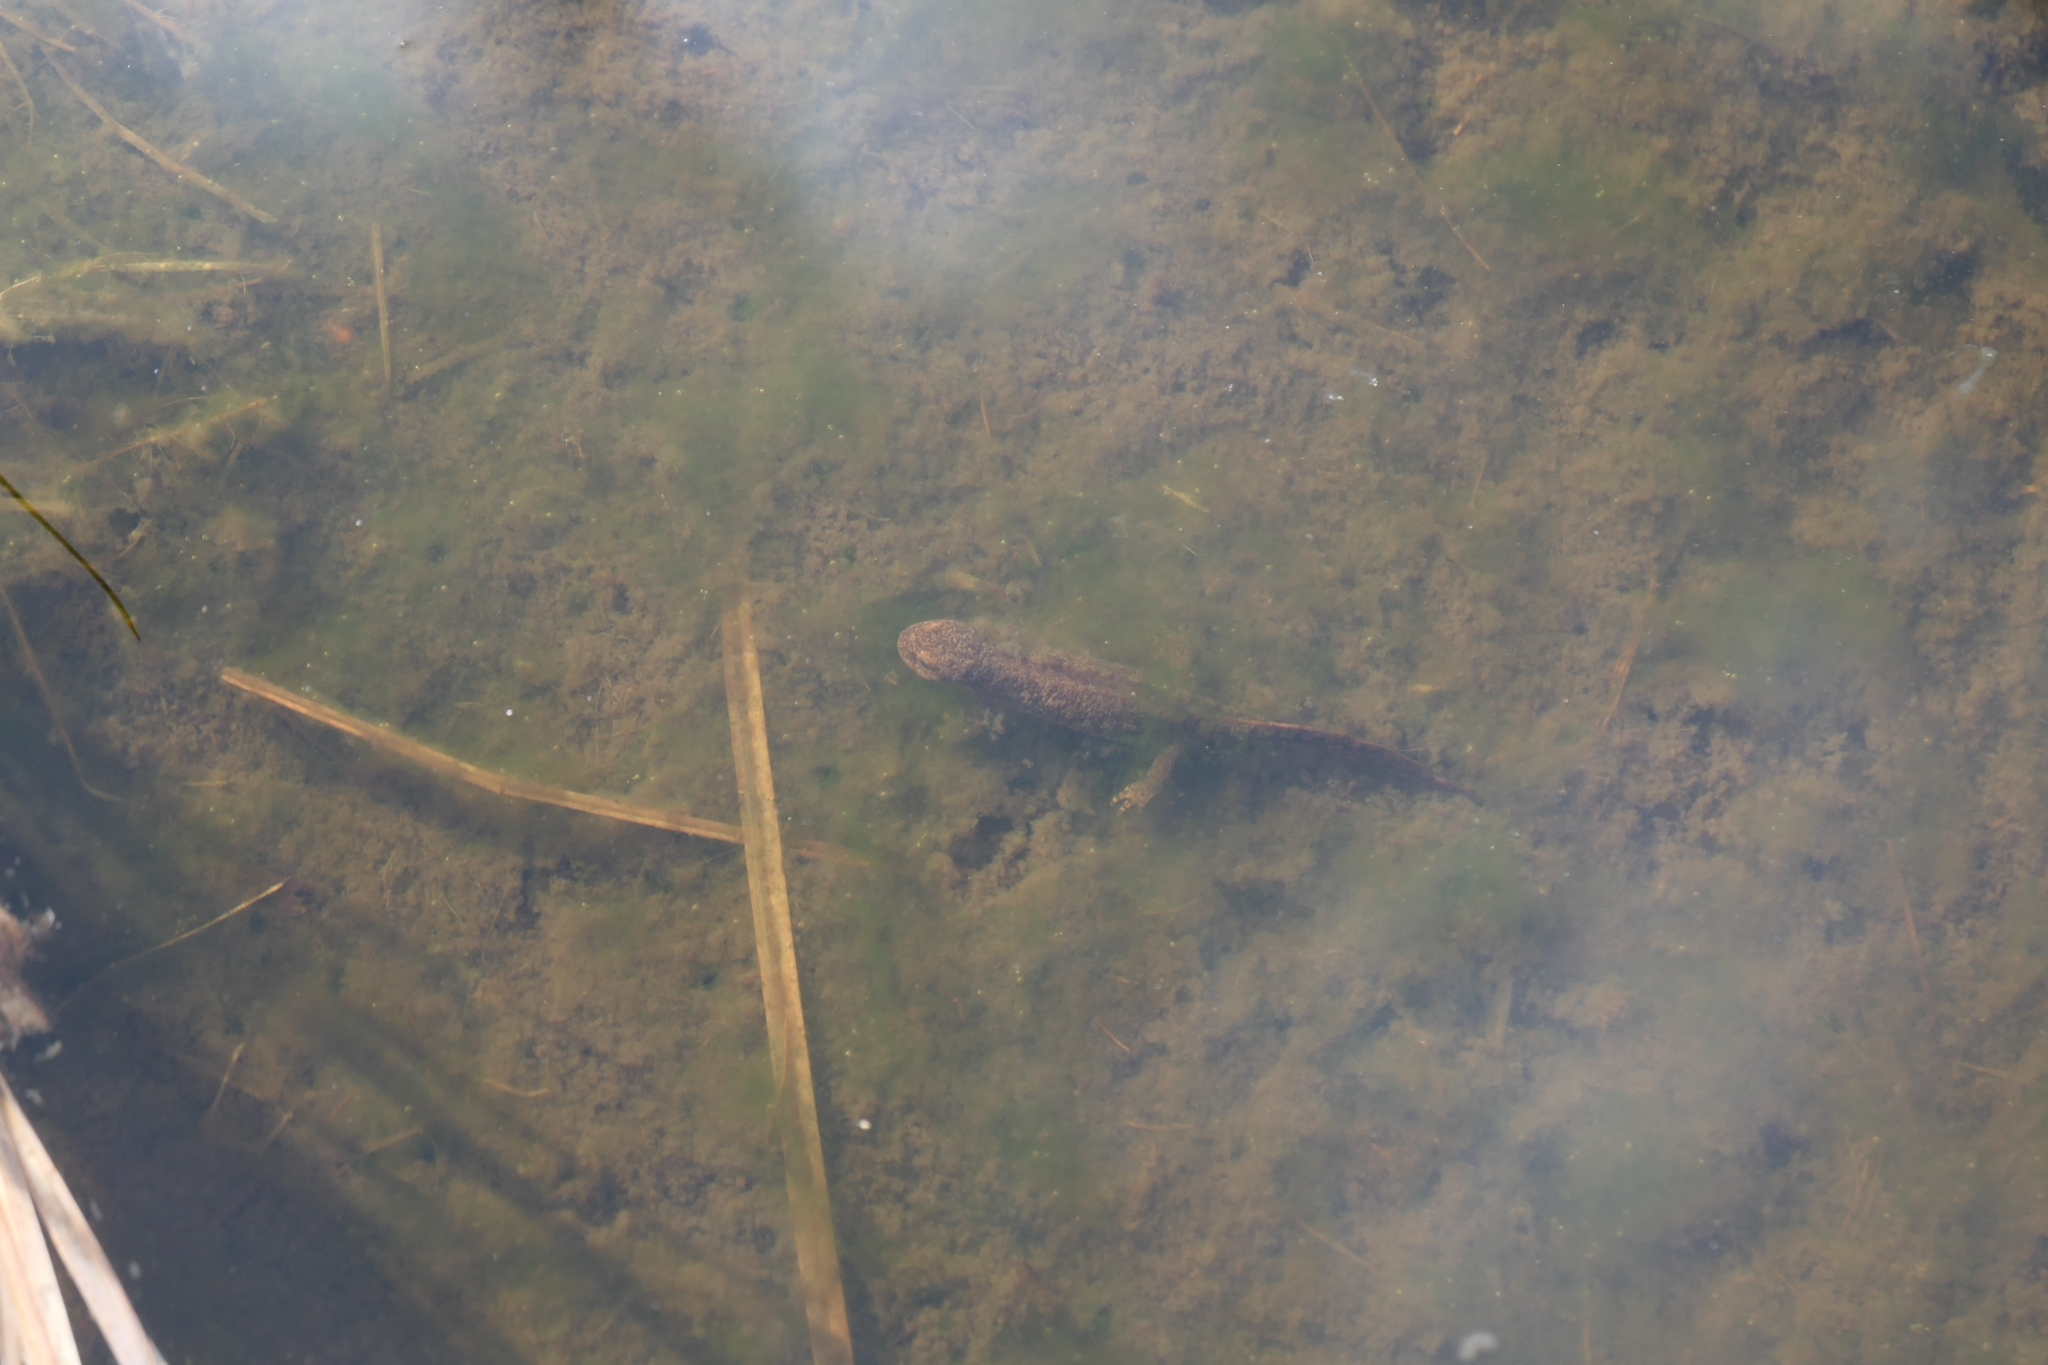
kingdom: Animalia
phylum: Chordata
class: Amphibia
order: Caudata
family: Salamandridae
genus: Ichthyosaura
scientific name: Ichthyosaura alpestris
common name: Alpine newt
